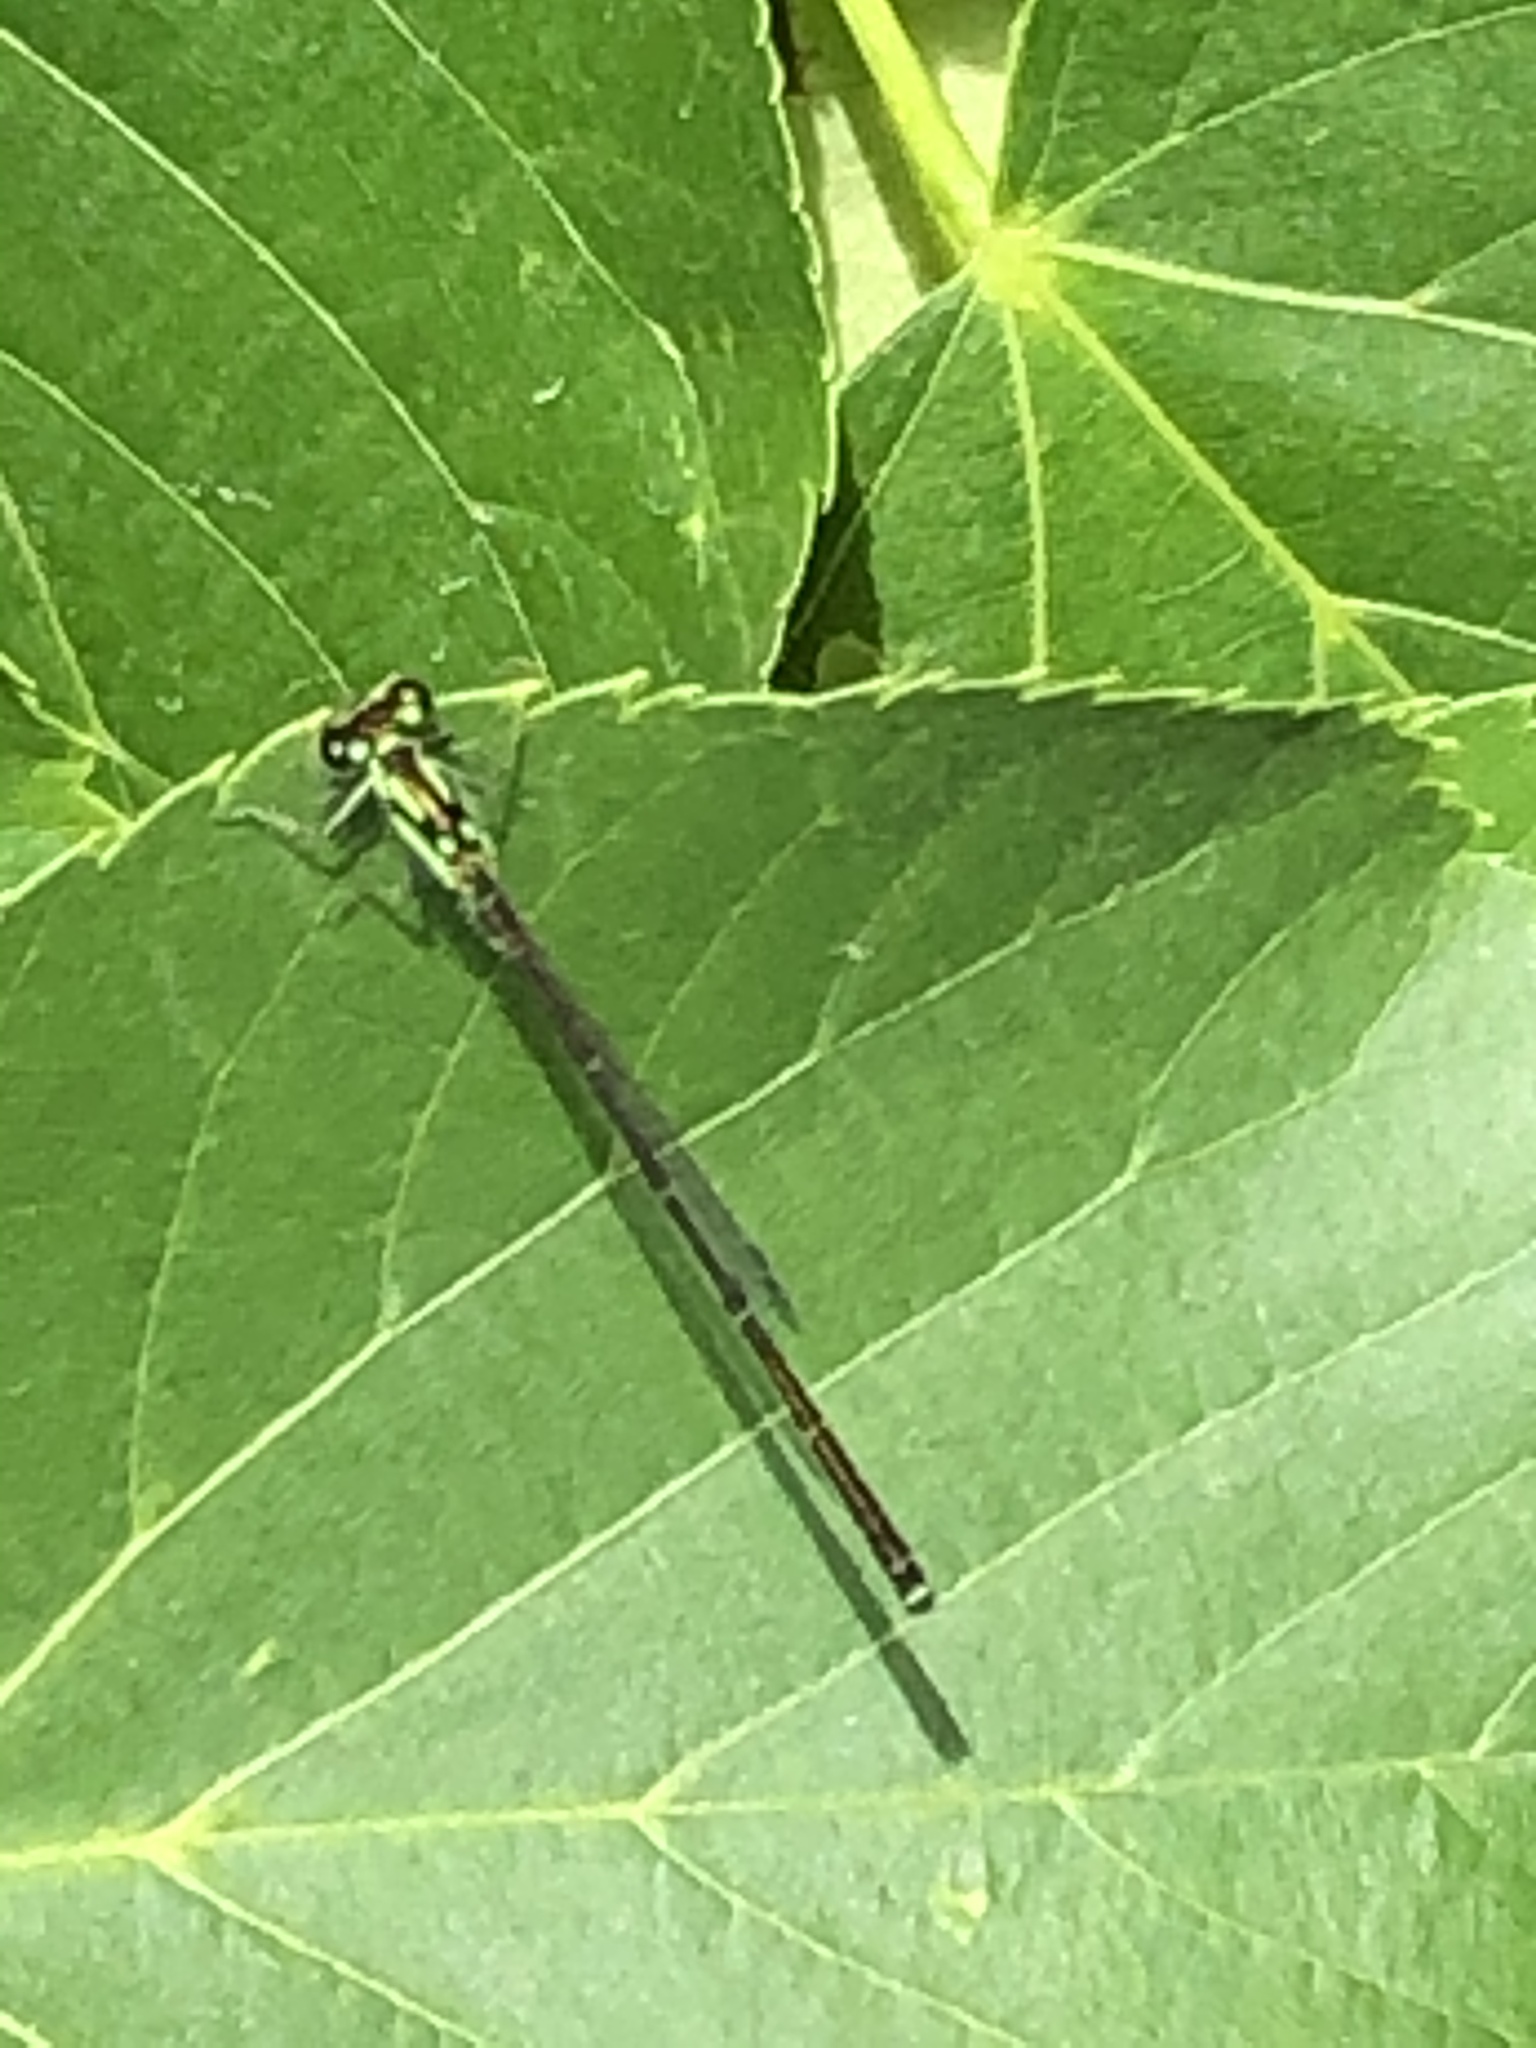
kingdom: Animalia
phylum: Arthropoda
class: Insecta
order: Odonata
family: Coenagrionidae
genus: Ischnura
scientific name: Ischnura posita
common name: Fragile forktail
